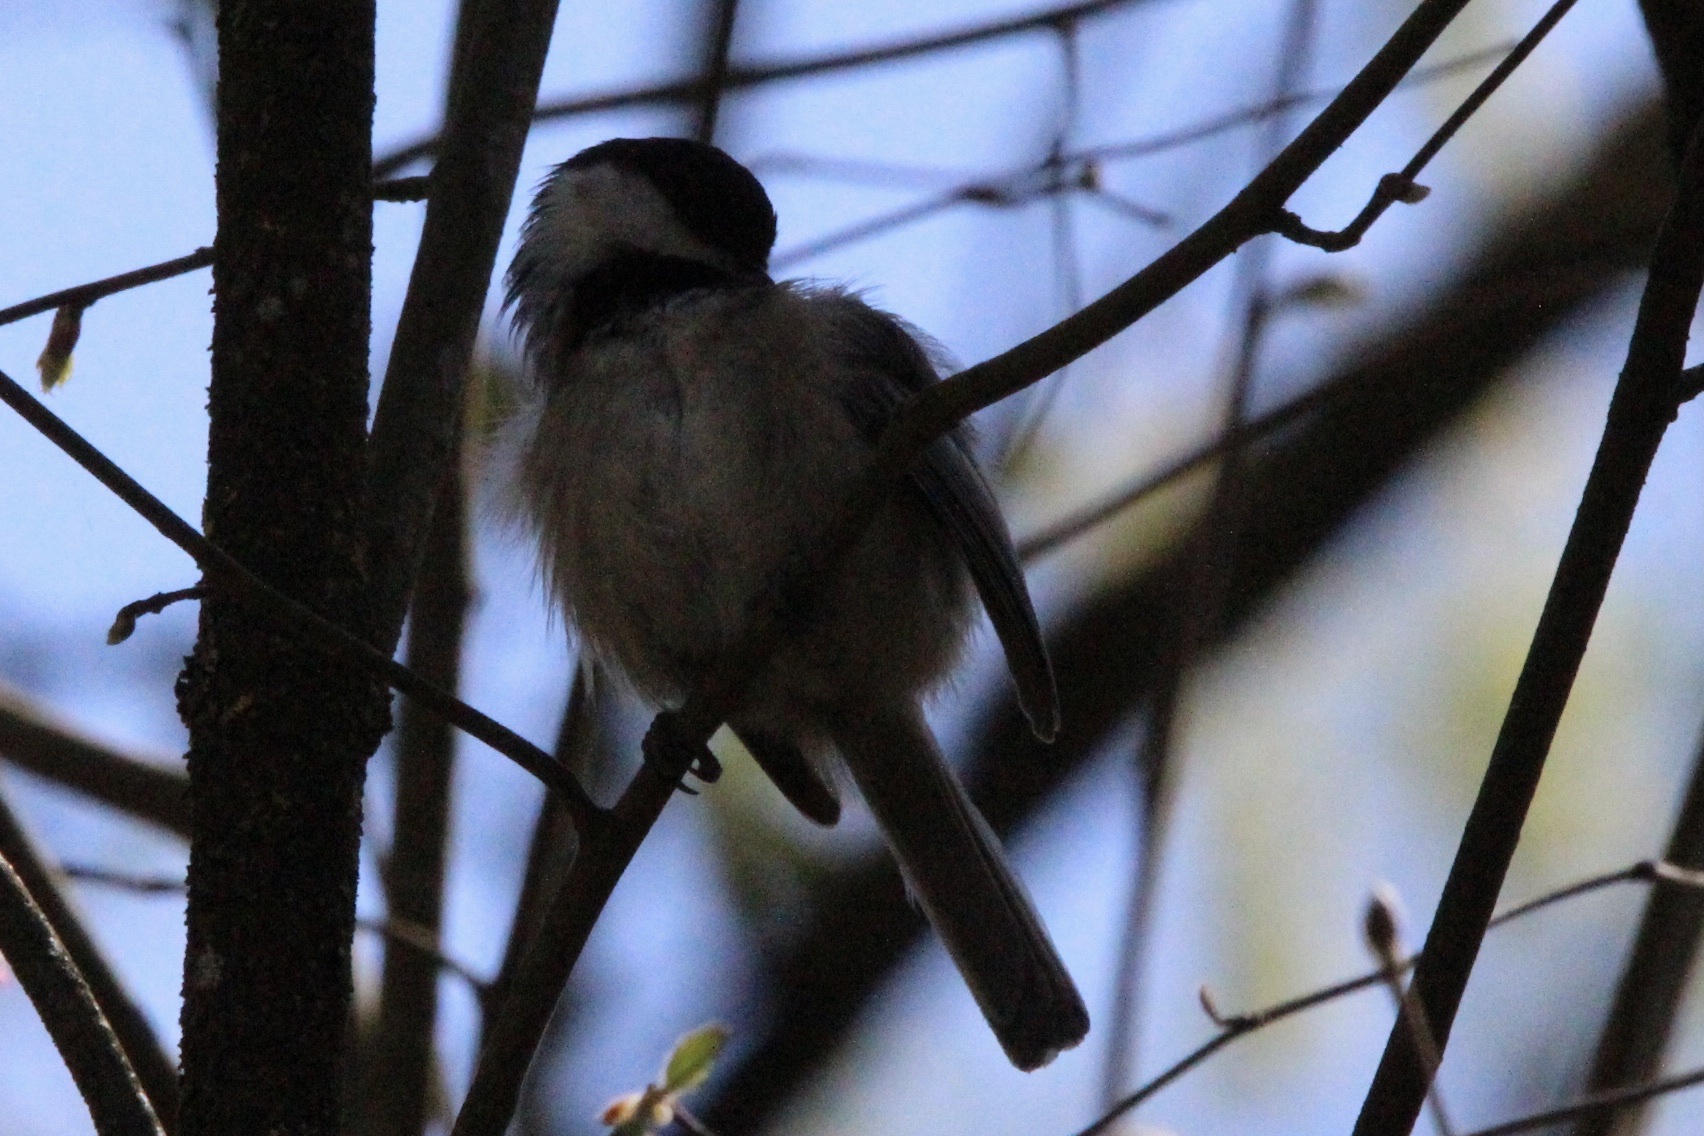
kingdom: Animalia
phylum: Chordata
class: Aves
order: Passeriformes
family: Paridae
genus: Poecile
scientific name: Poecile atricapillus
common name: Black-capped chickadee
